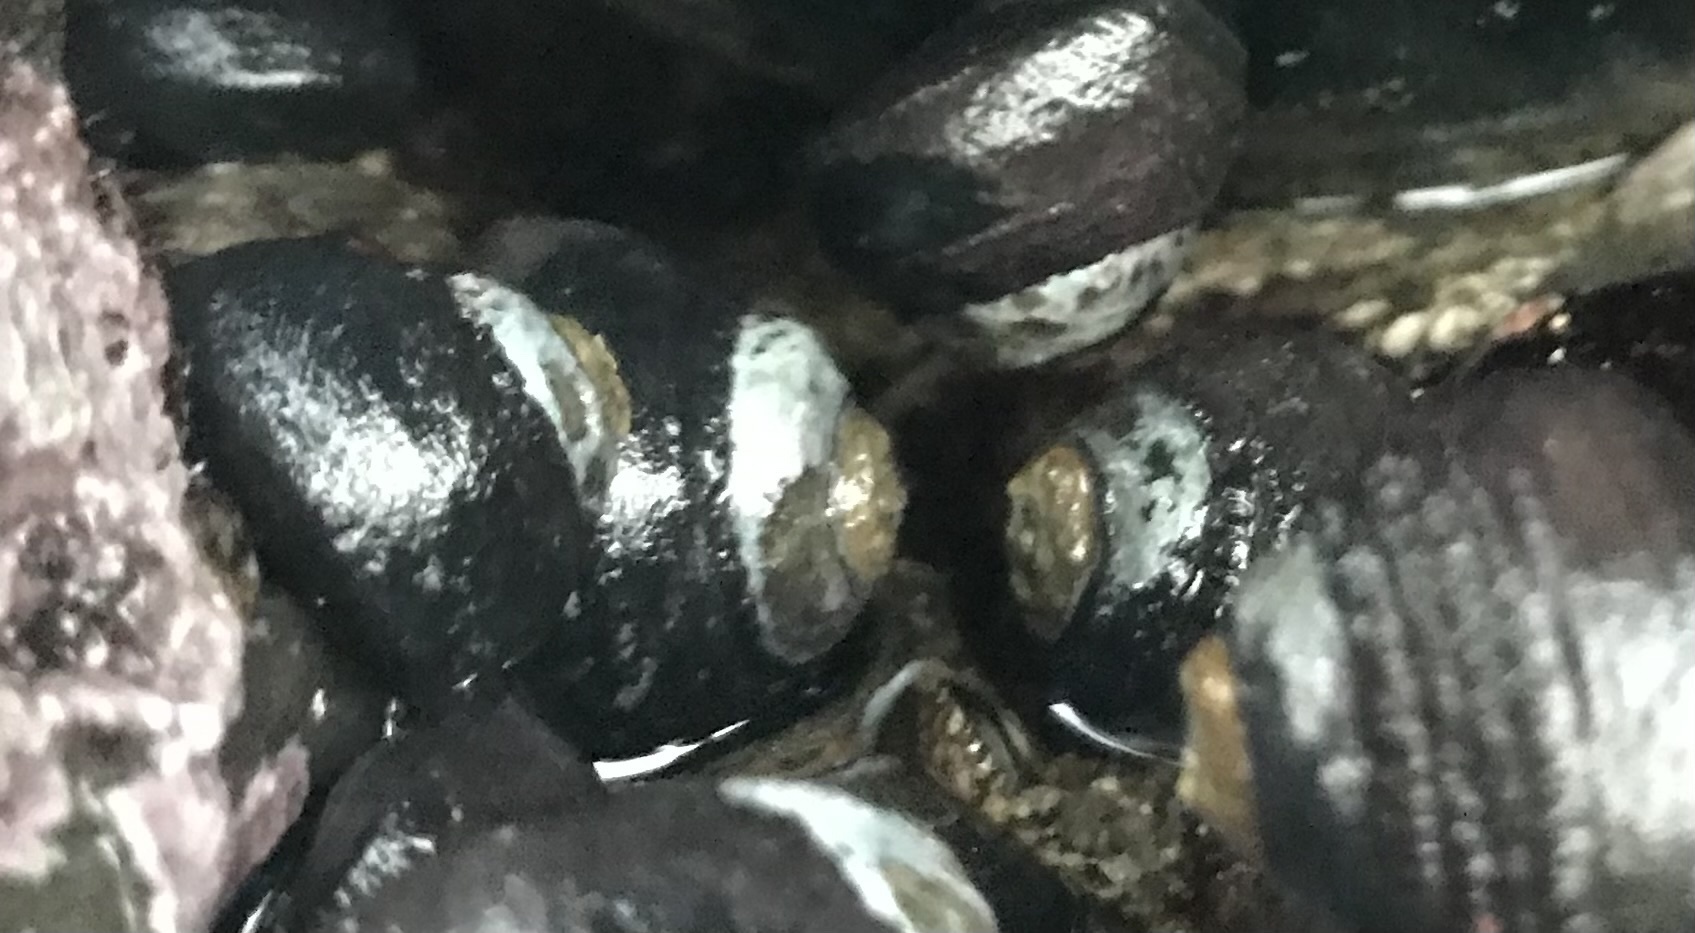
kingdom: Animalia
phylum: Mollusca
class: Gastropoda
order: Trochida
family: Tegulidae
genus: Tegula
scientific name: Tegula funebralis
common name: Black tegula
